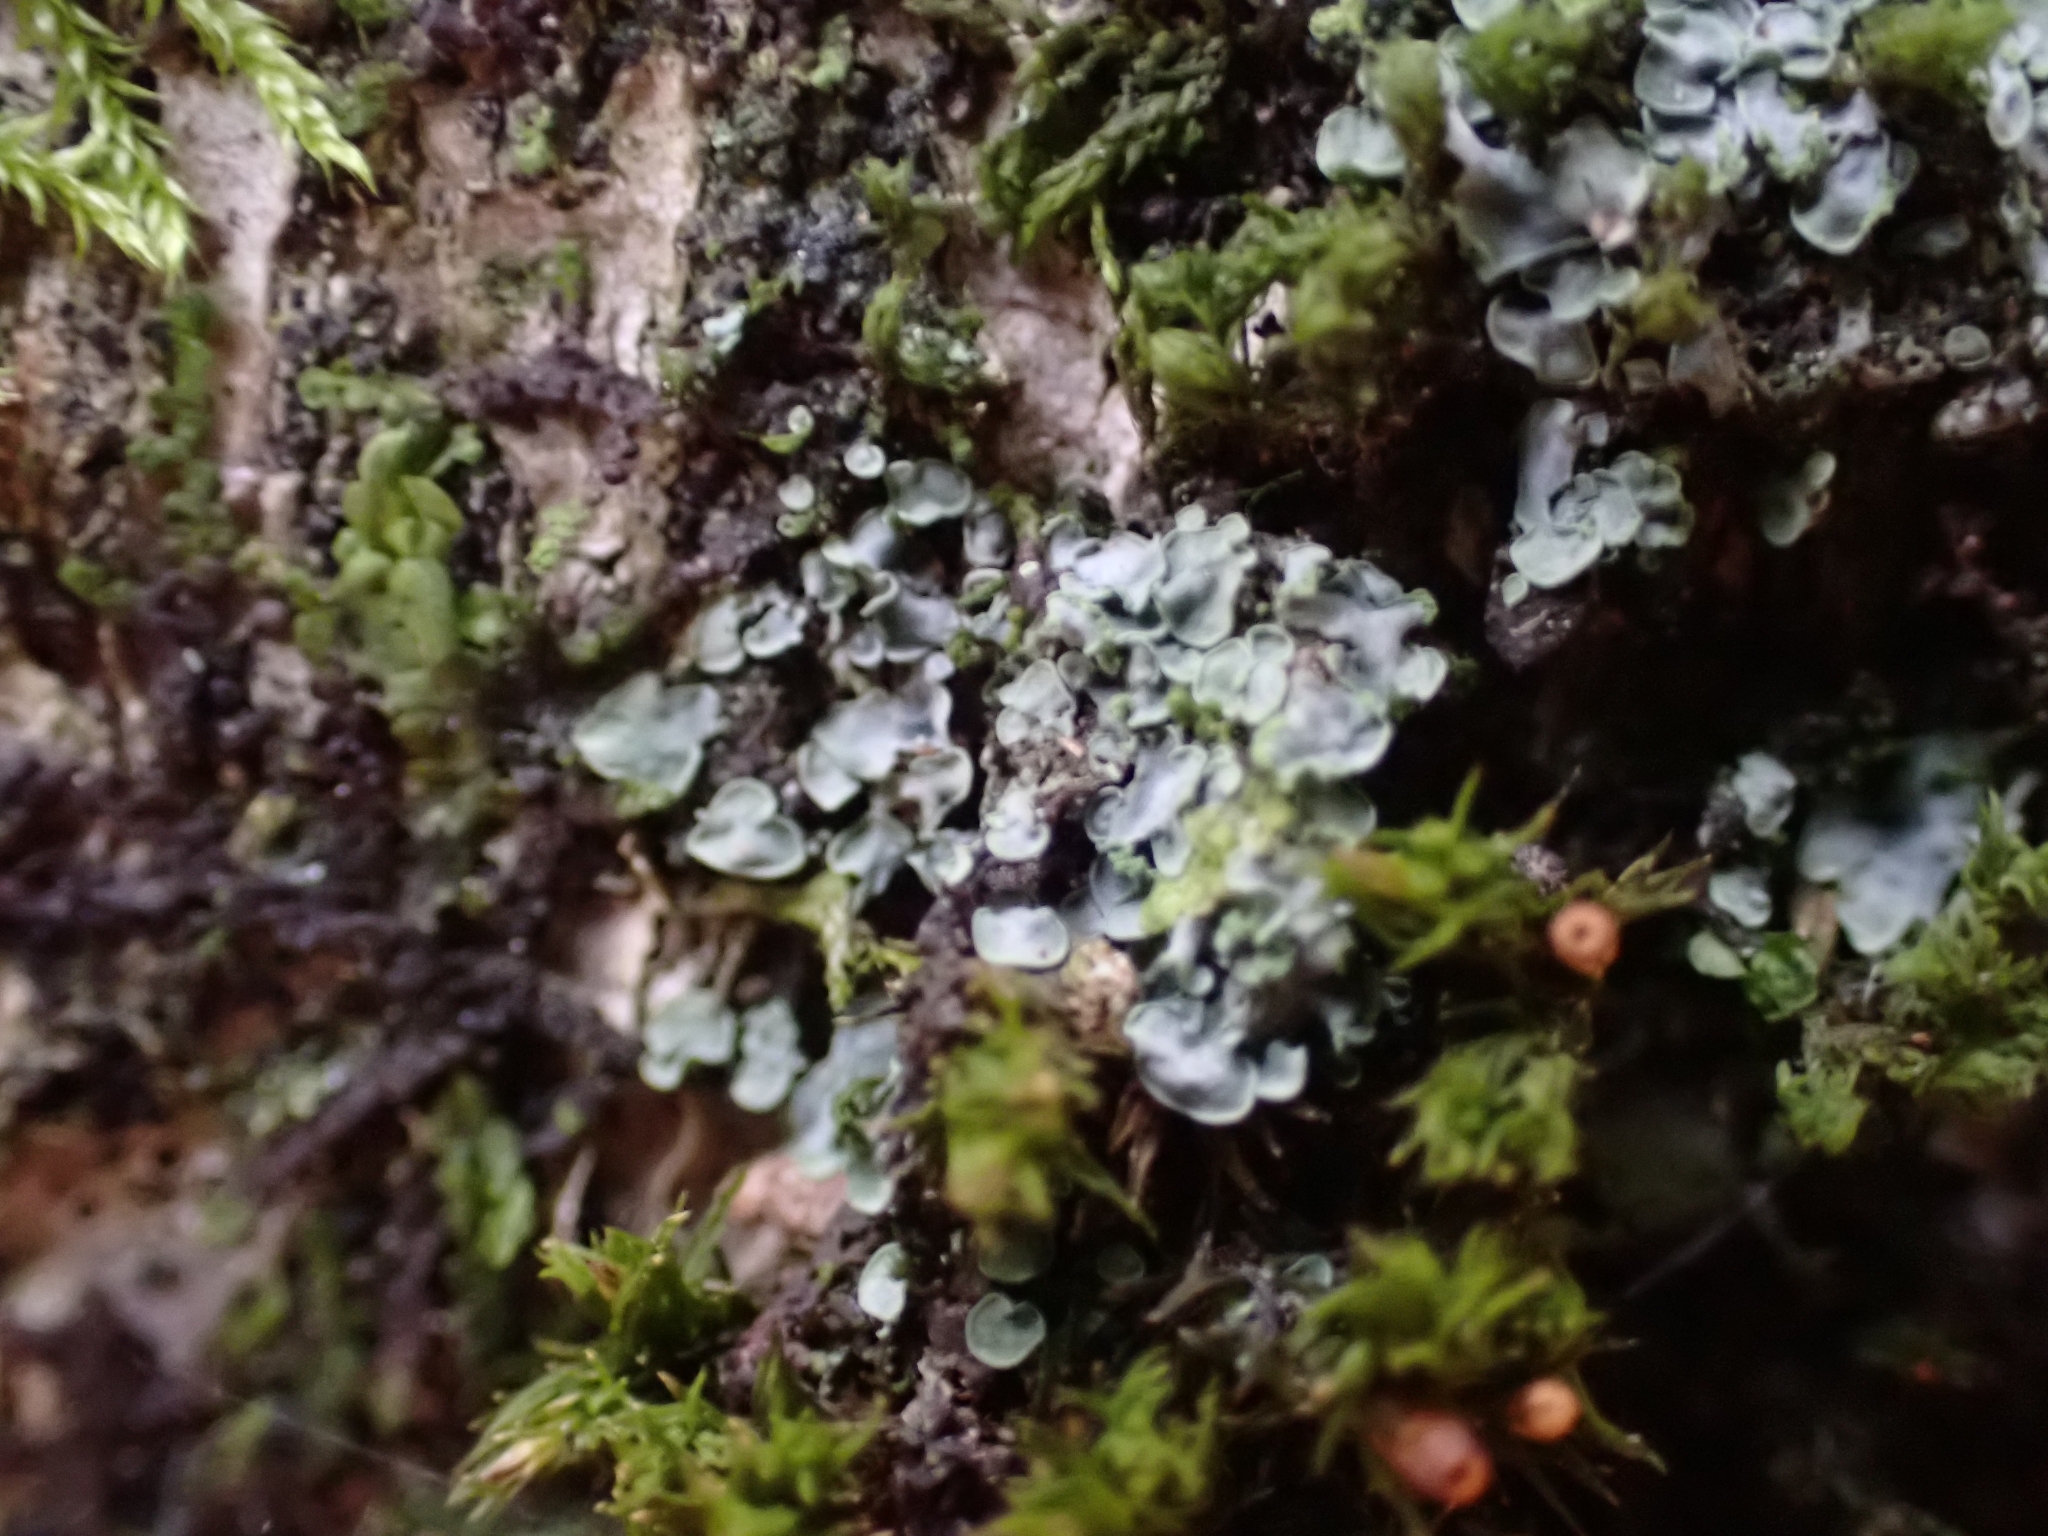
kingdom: Fungi
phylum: Ascomycota
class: Eurotiomycetes
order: Verrucariales
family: Verrucariaceae
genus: Normandina
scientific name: Normandina pulchella
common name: Elf ears lichen
